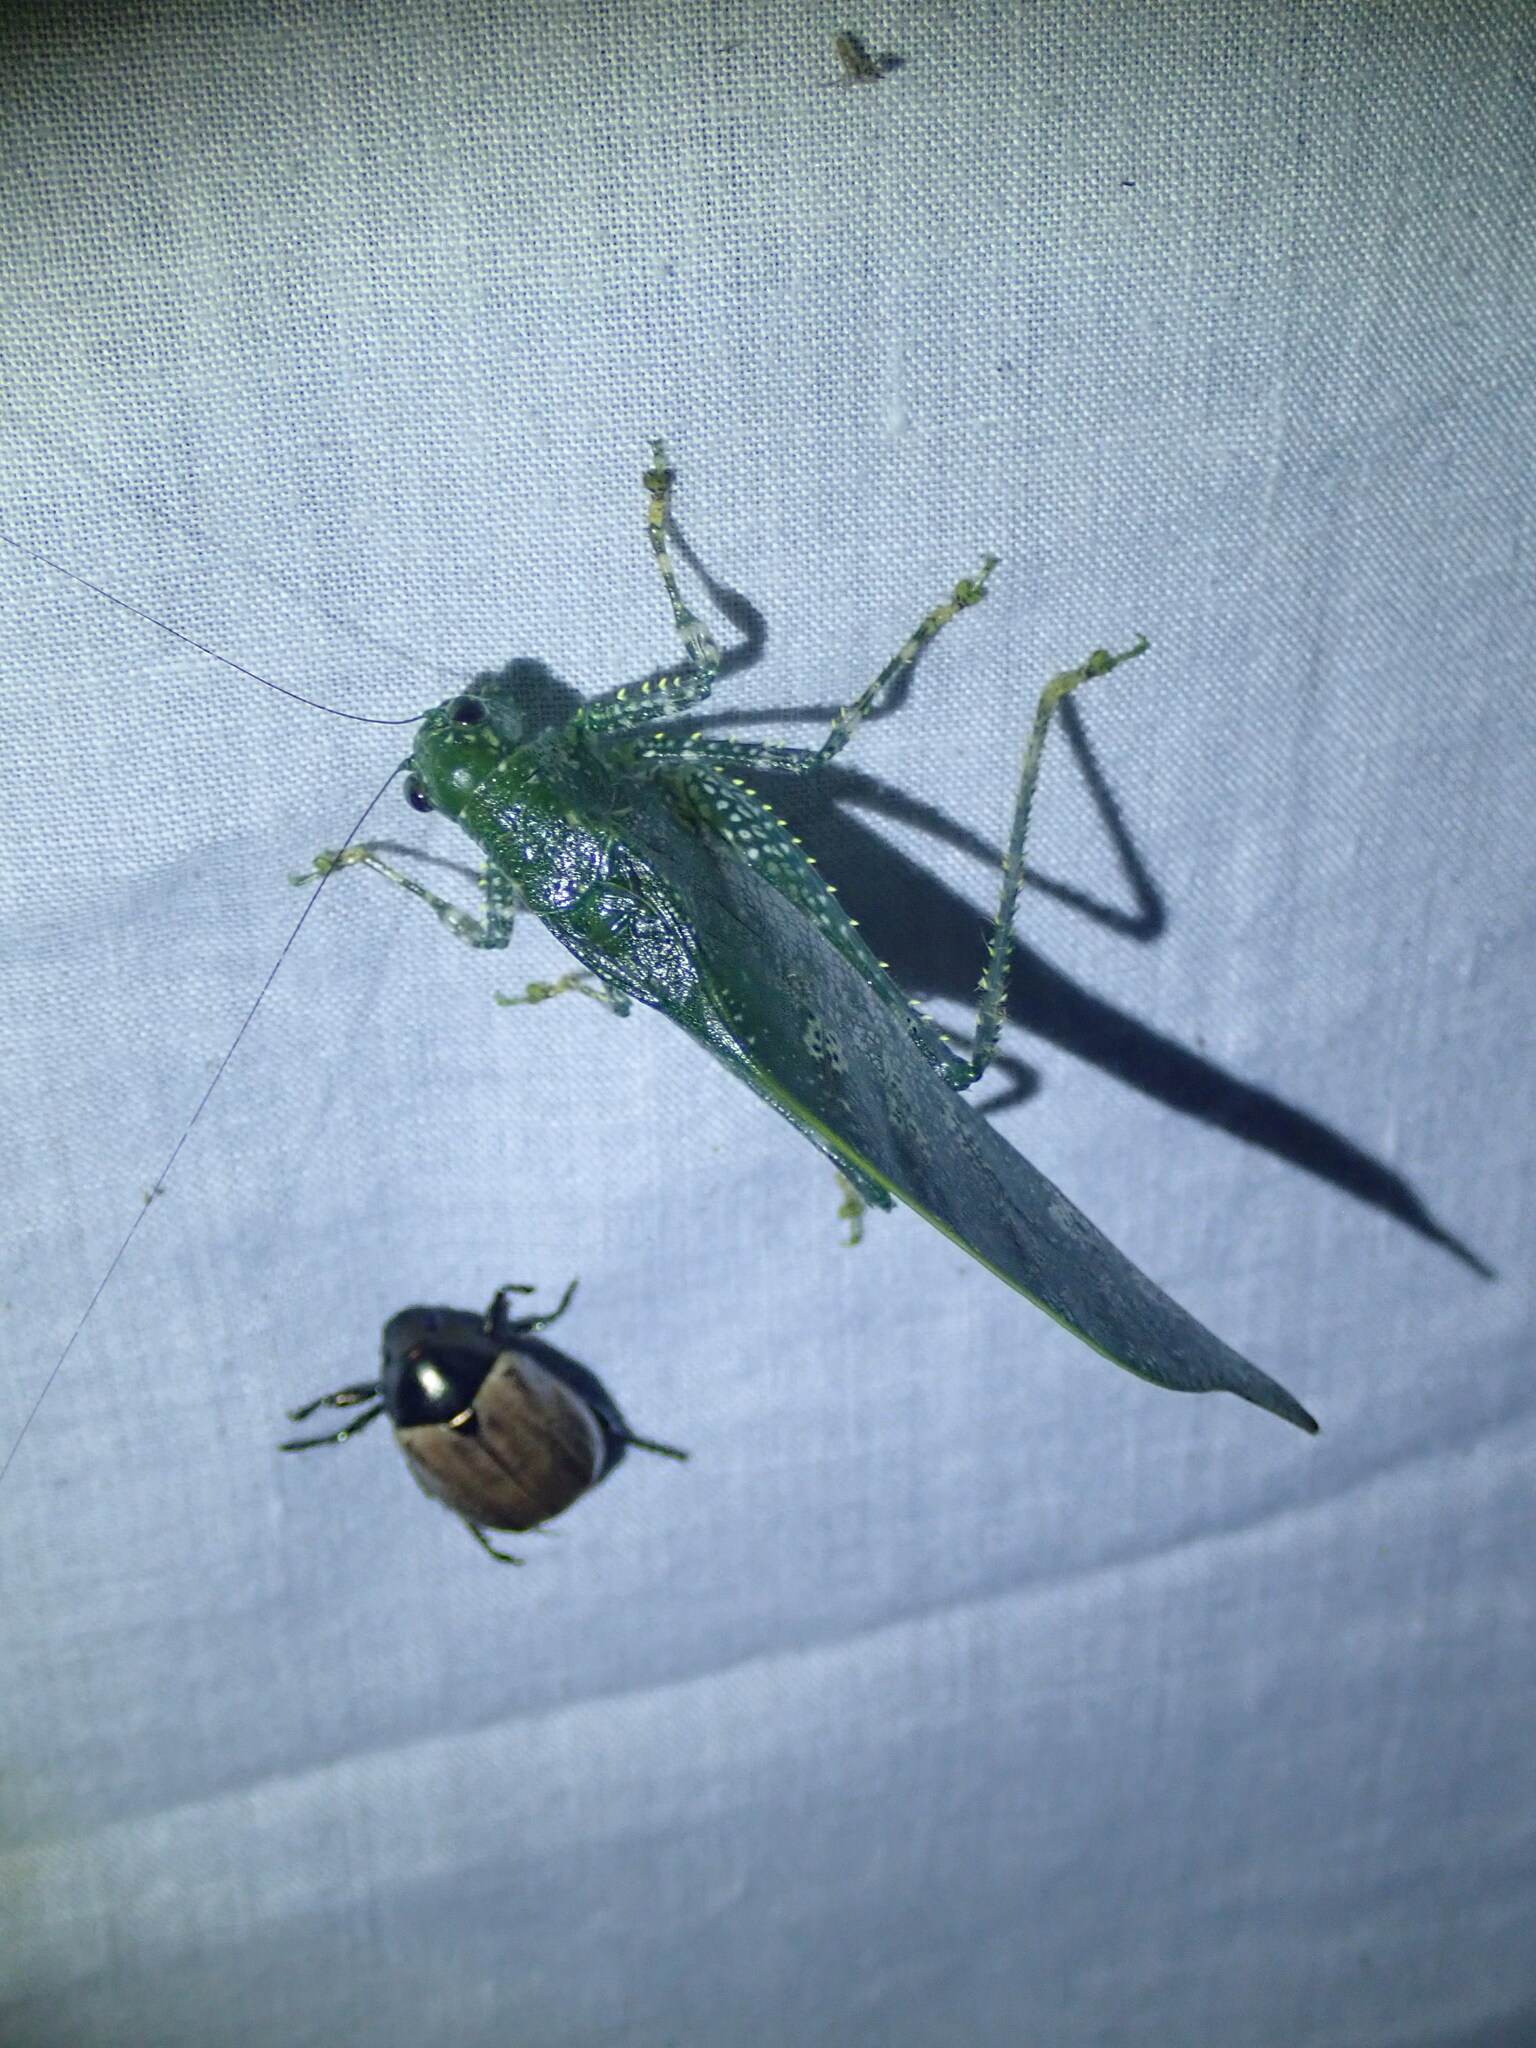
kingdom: Animalia
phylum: Arthropoda
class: Insecta
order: Orthoptera
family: Tettigoniidae
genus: Anapolisia
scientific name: Anapolisia maculosa
